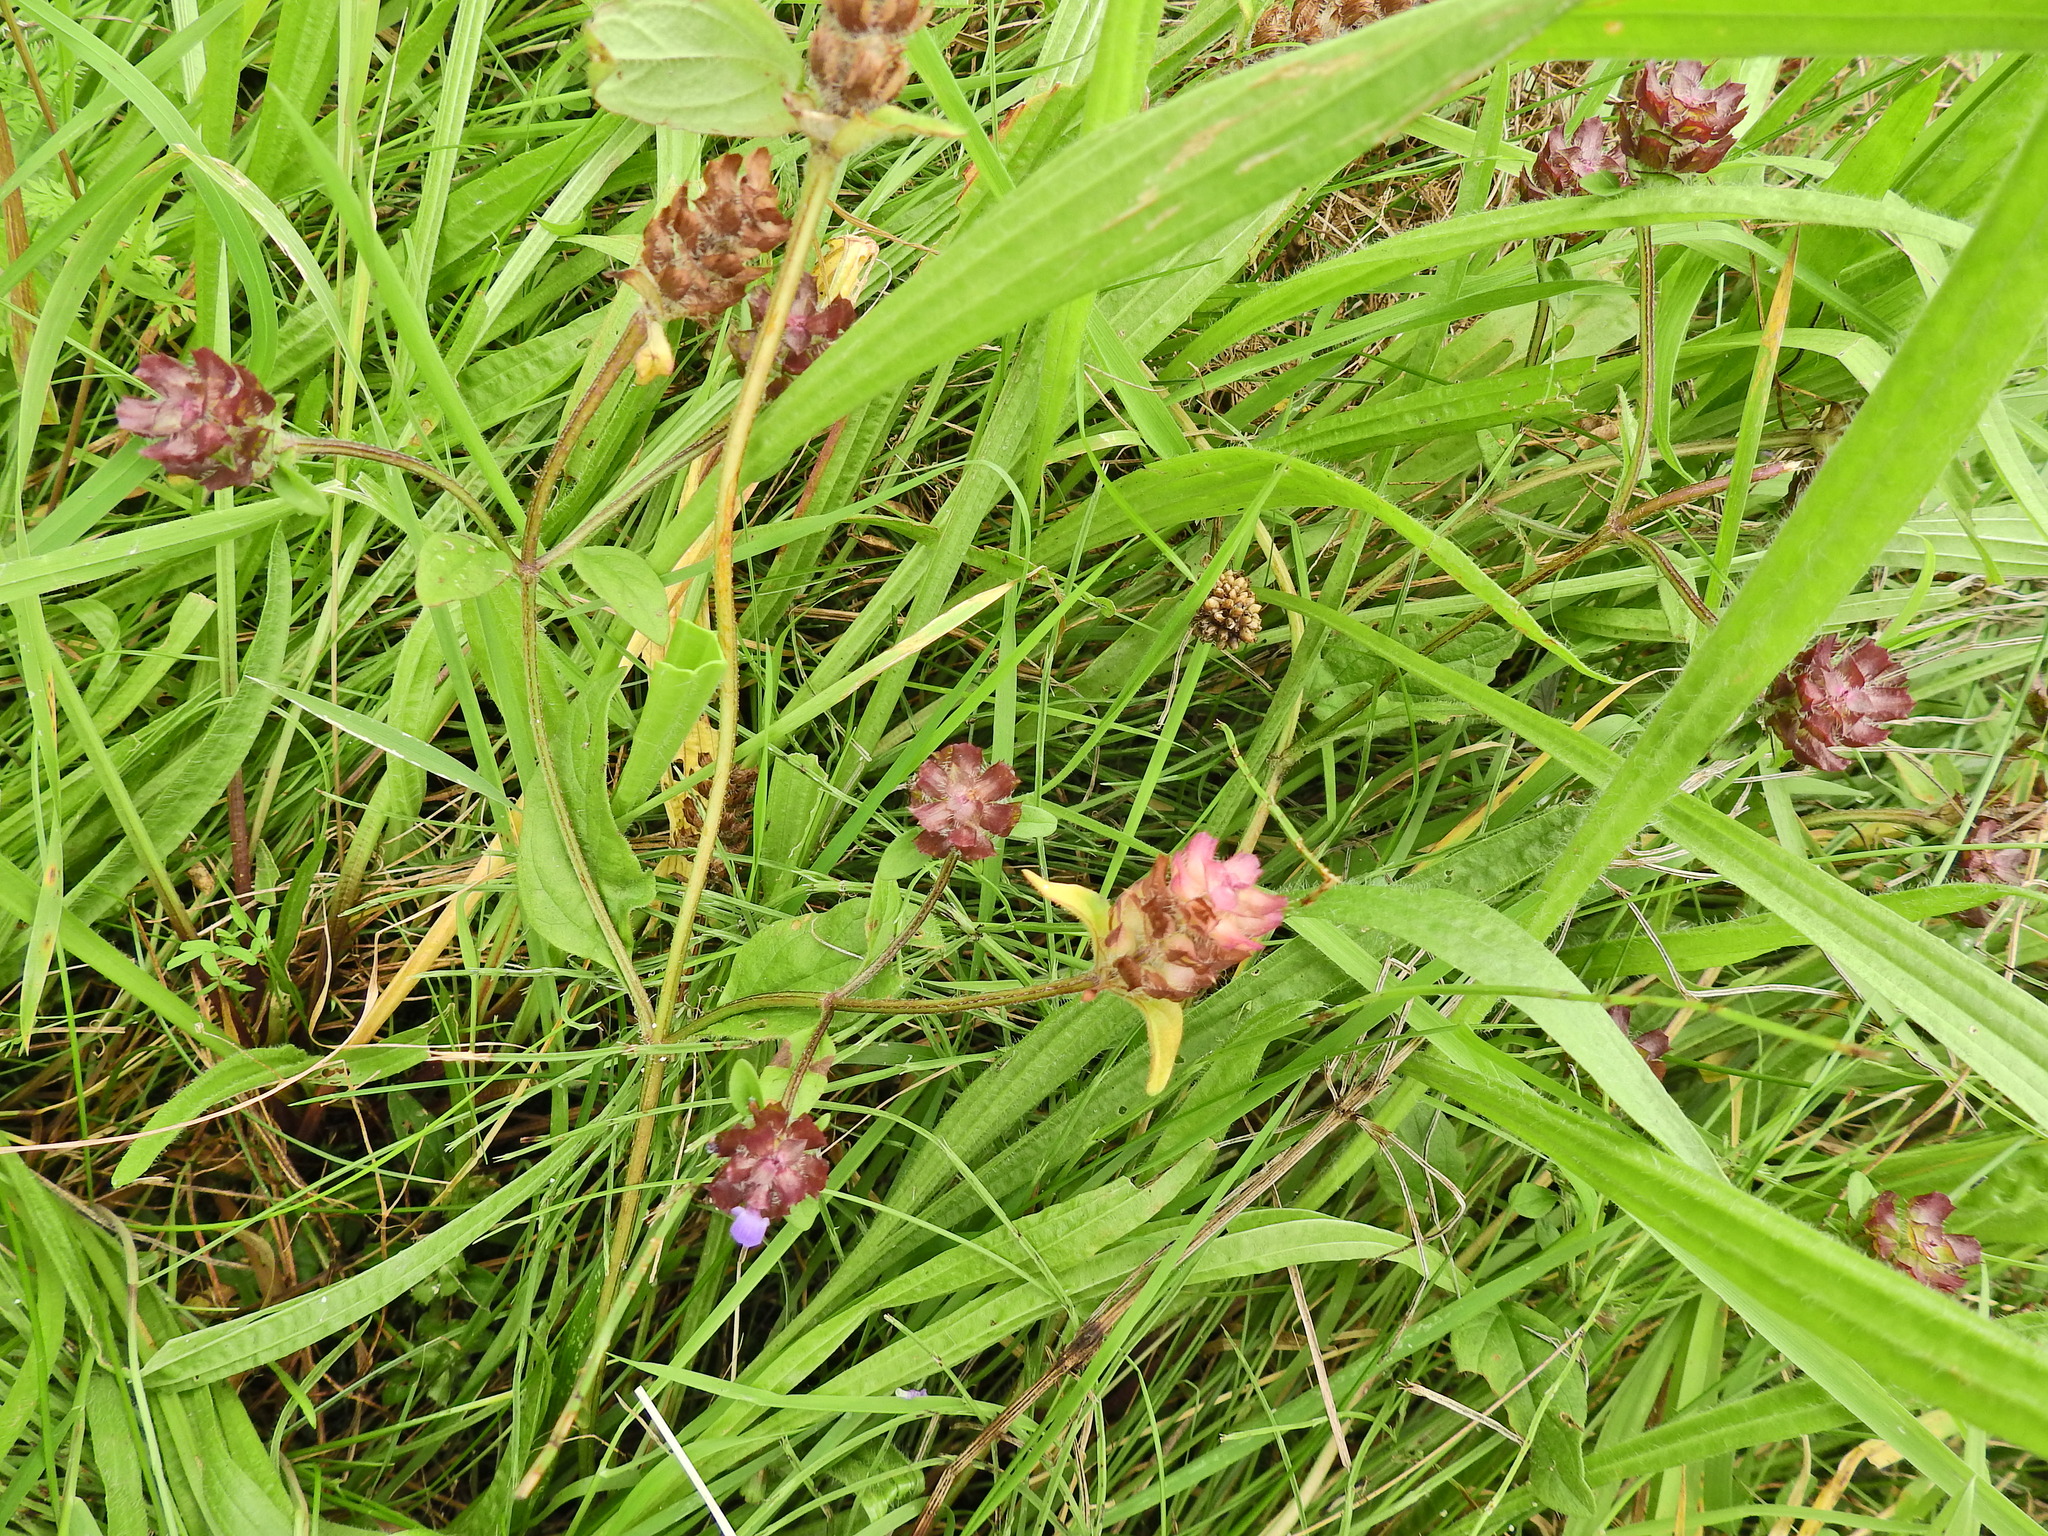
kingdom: Plantae
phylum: Tracheophyta
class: Magnoliopsida
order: Lamiales
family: Lamiaceae
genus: Prunella
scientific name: Prunella vulgaris
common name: Heal-all
